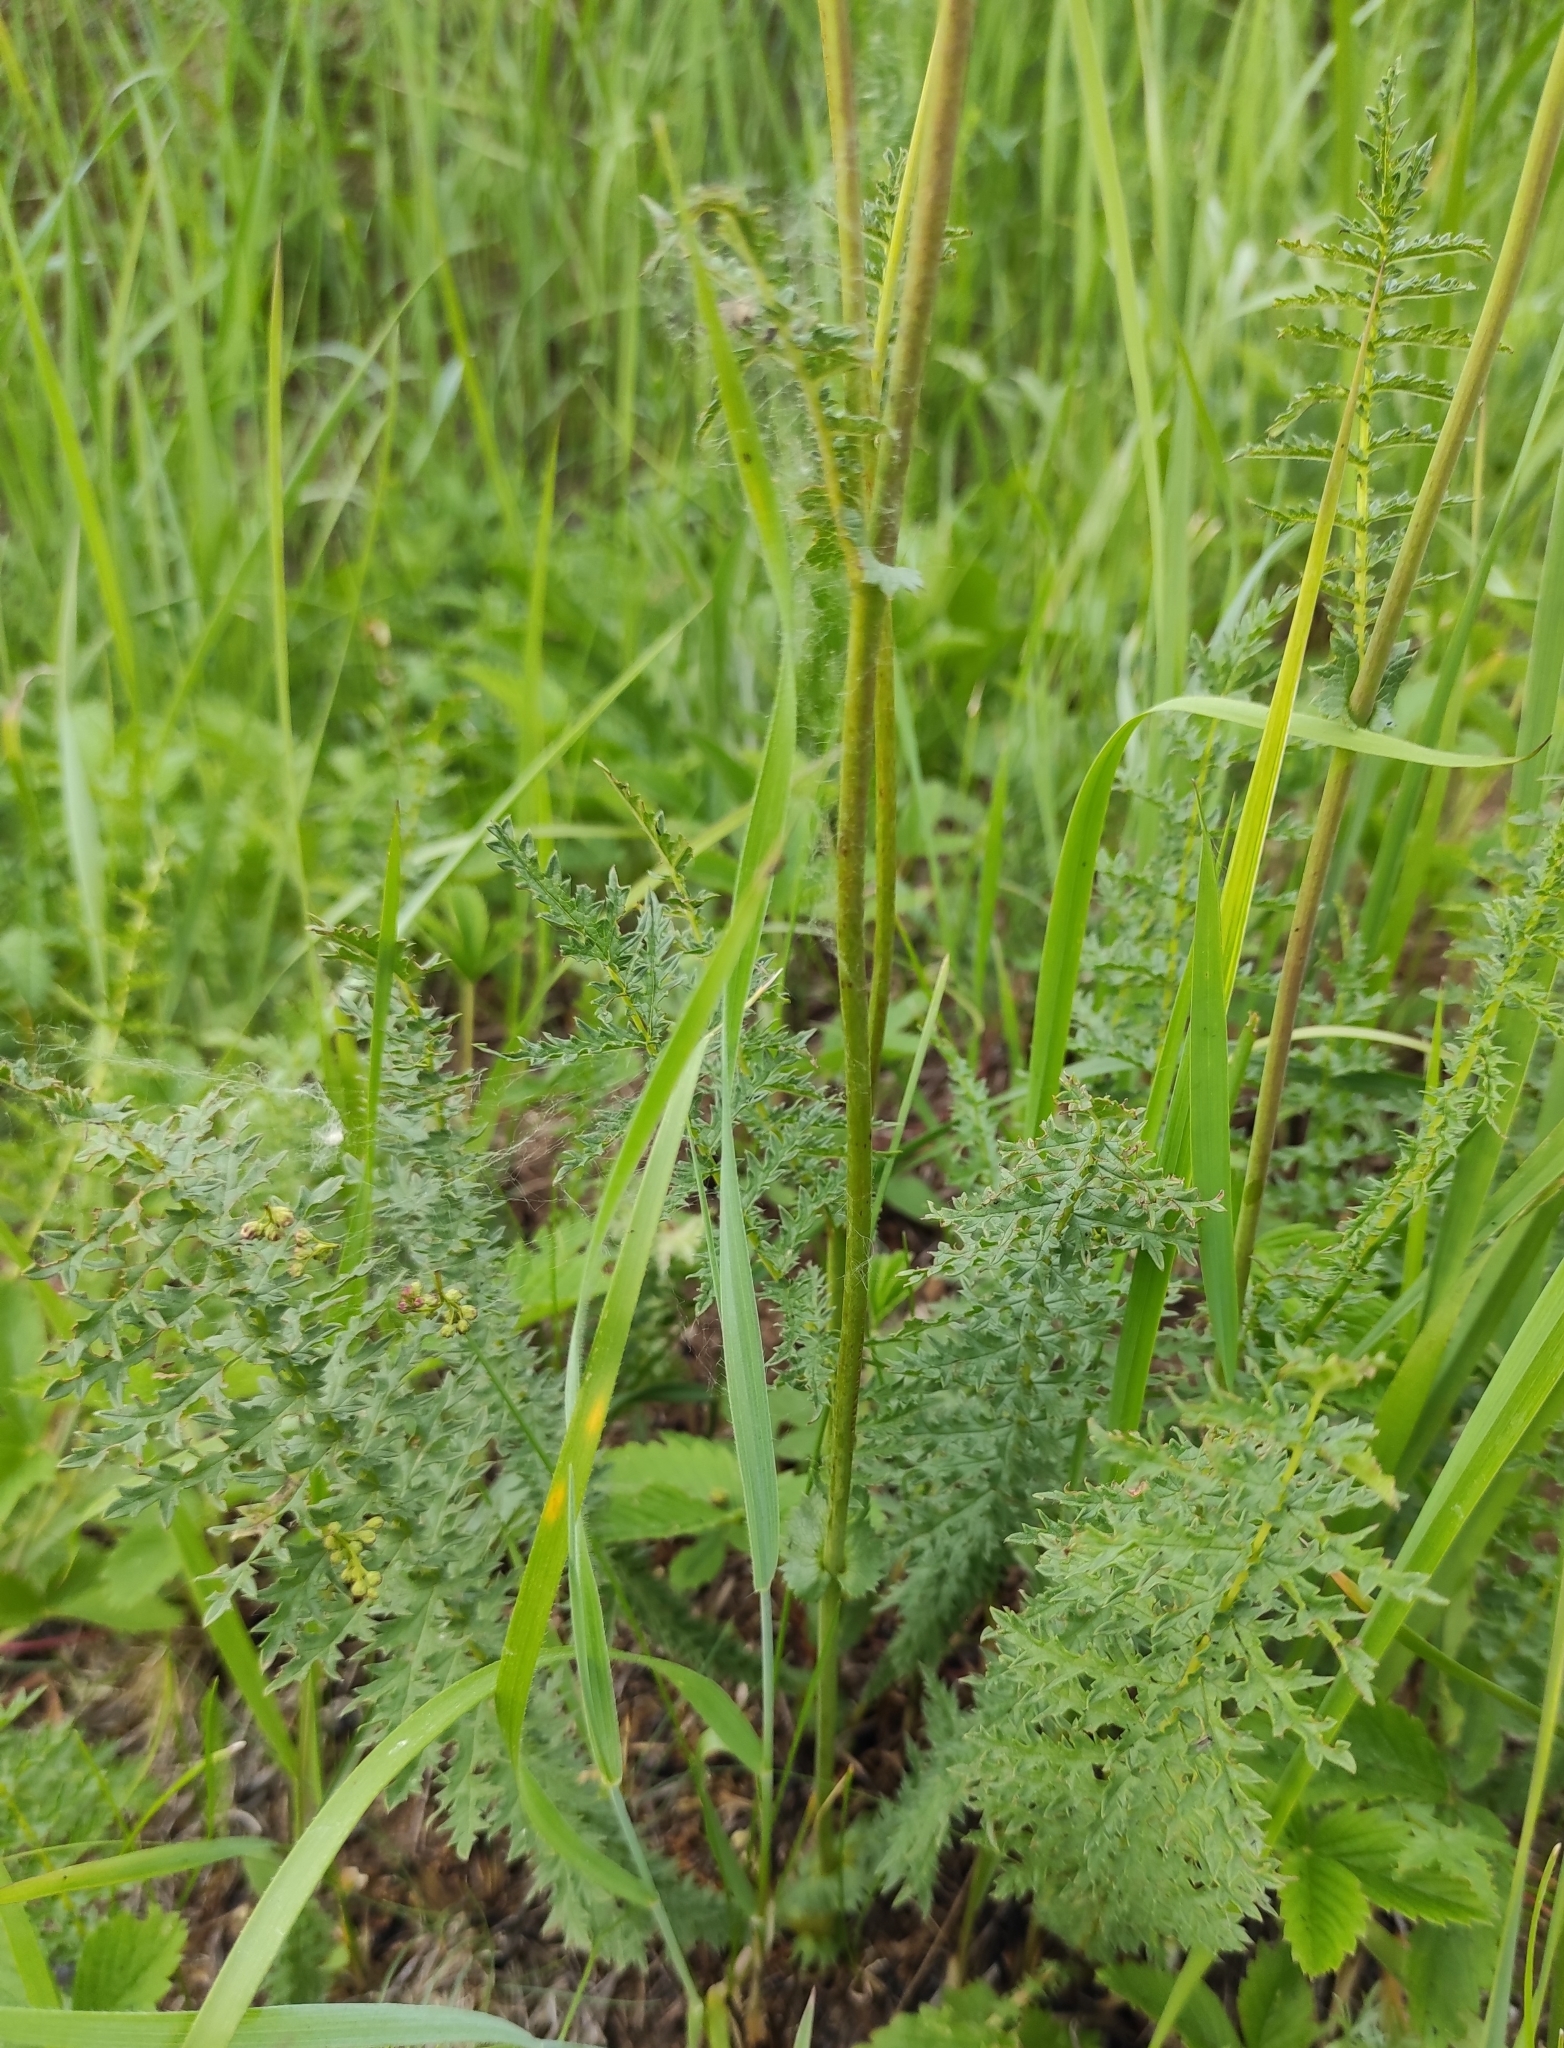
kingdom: Plantae
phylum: Tracheophyta
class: Magnoliopsida
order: Rosales
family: Rosaceae
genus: Filipendula
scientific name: Filipendula vulgaris
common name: Dropwort
